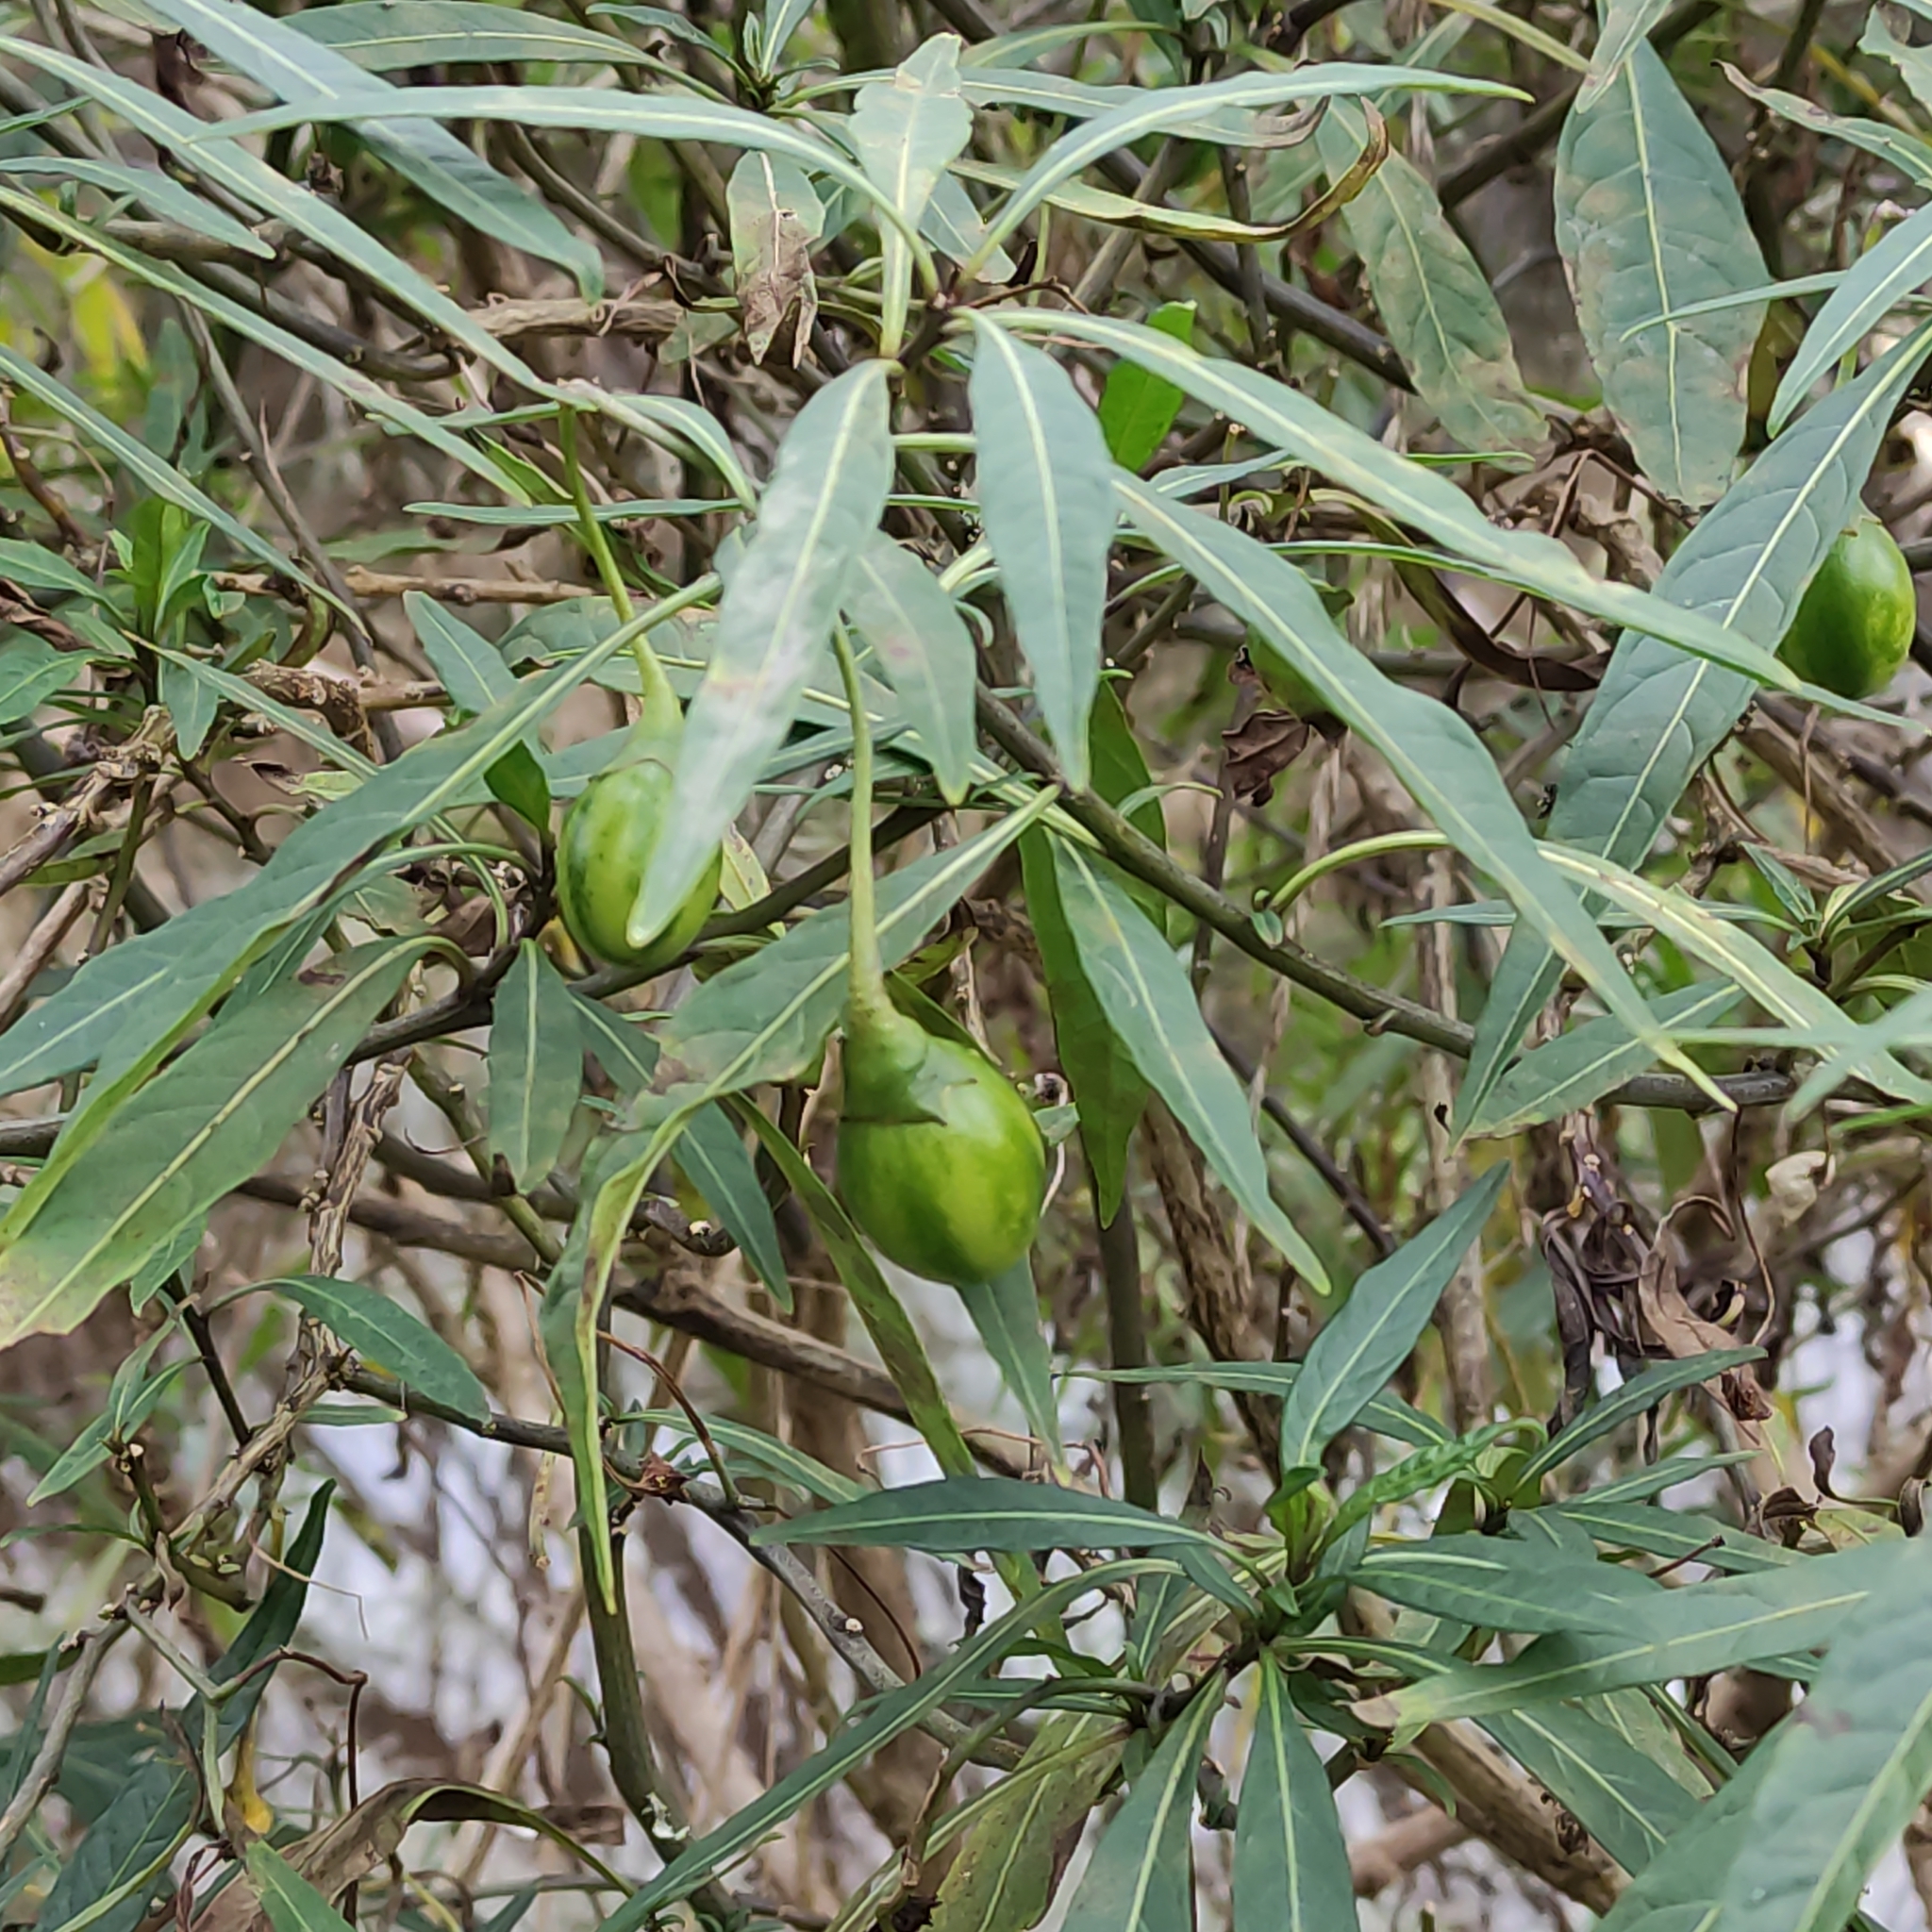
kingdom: Plantae
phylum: Tracheophyta
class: Magnoliopsida
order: Solanales
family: Solanaceae
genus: Solanum
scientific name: Solanum
